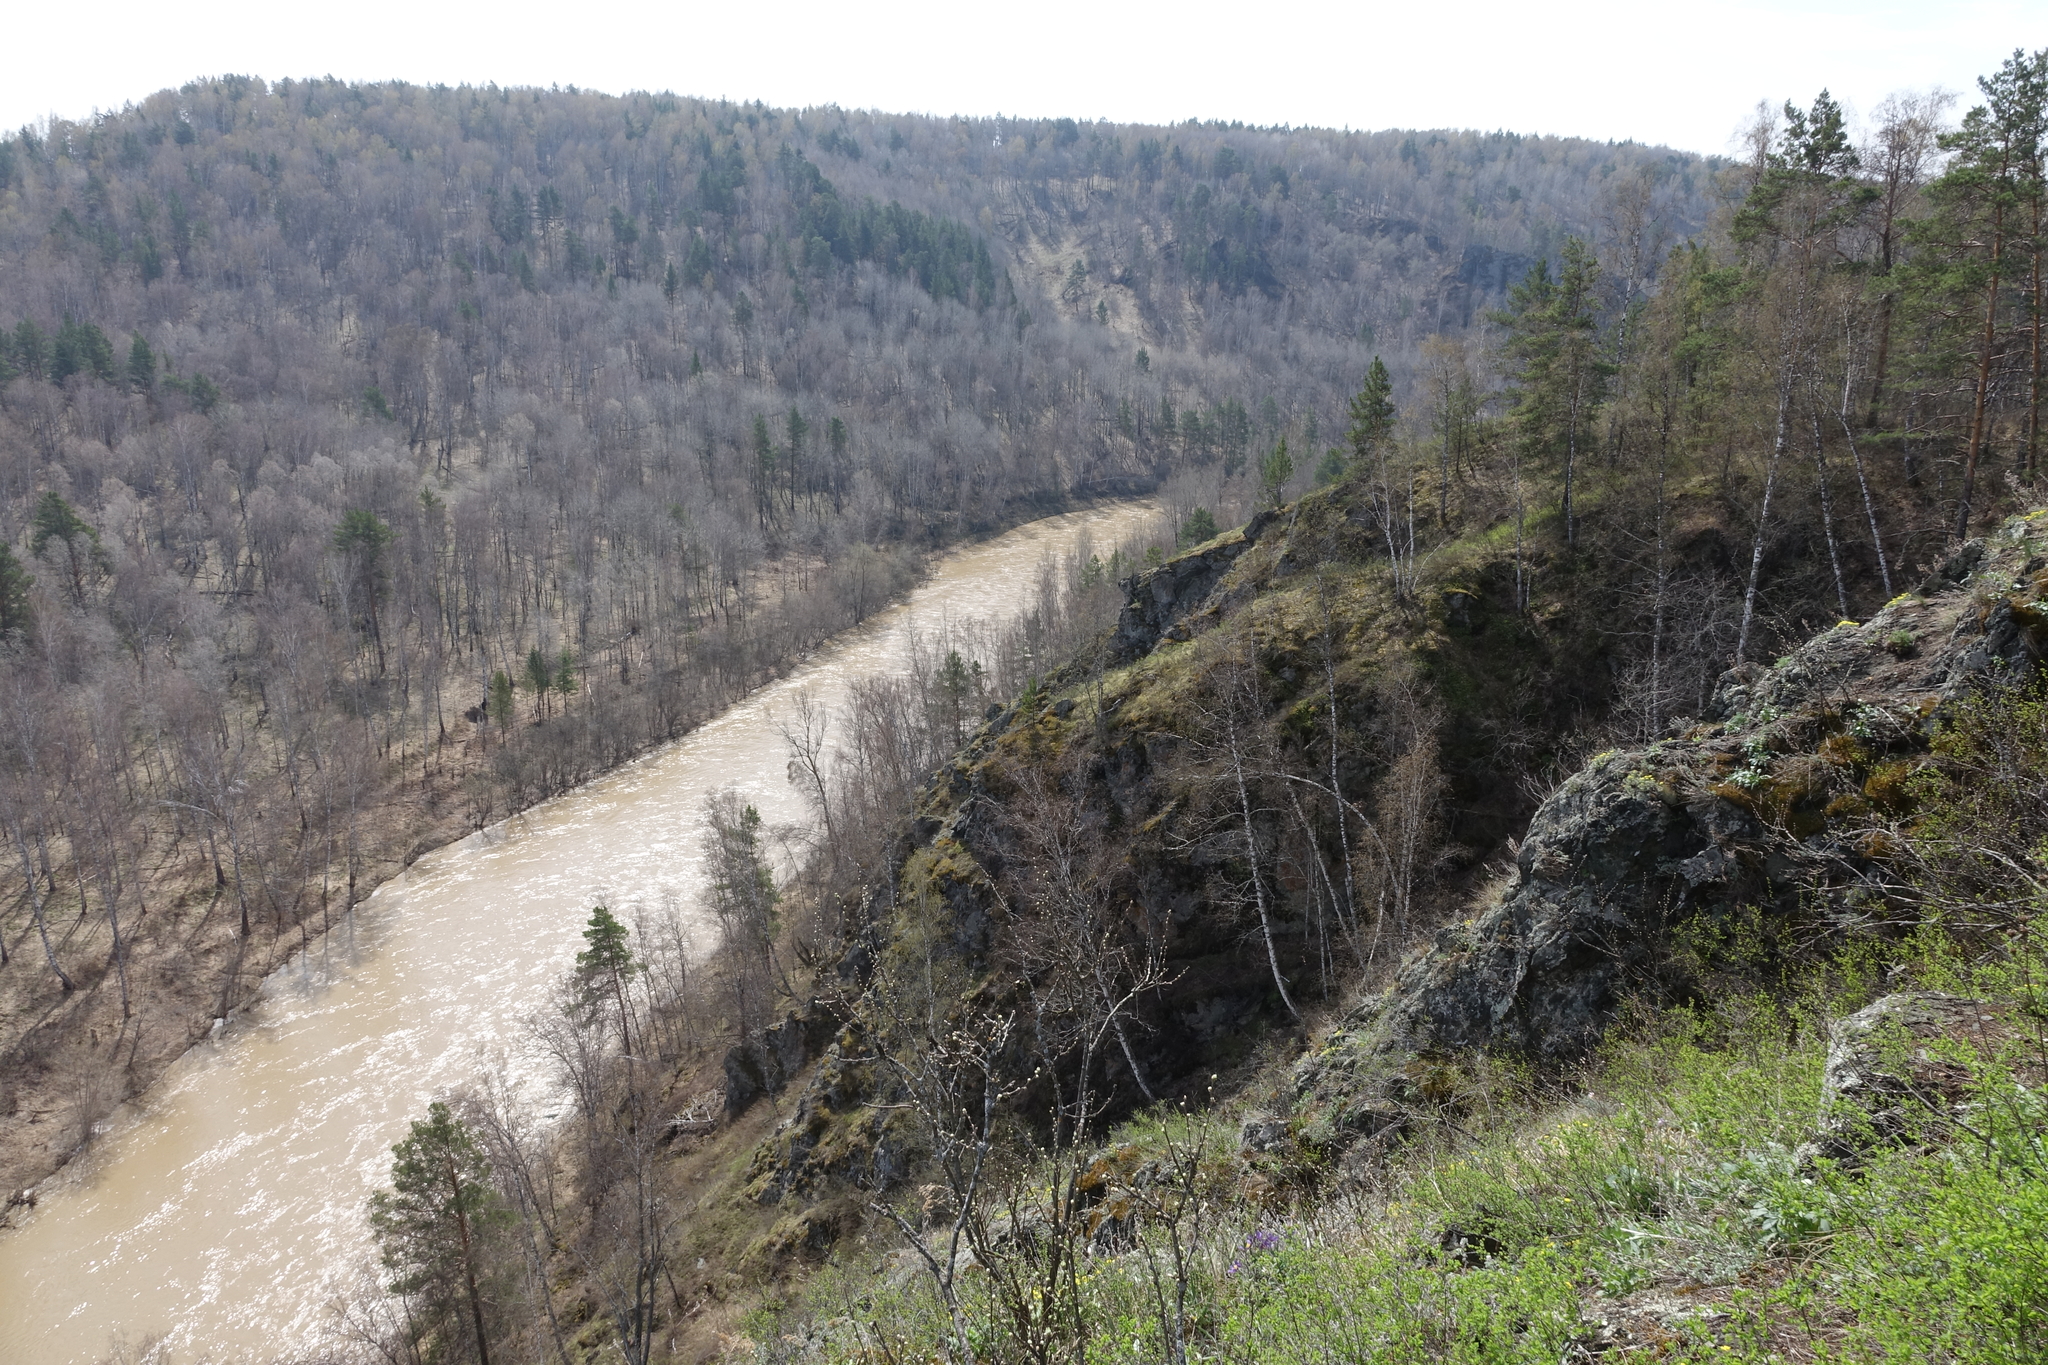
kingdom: Plantae
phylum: Tracheophyta
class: Pinopsida
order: Pinales
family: Pinaceae
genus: Pinus
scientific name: Pinus sylvestris
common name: Scots pine
